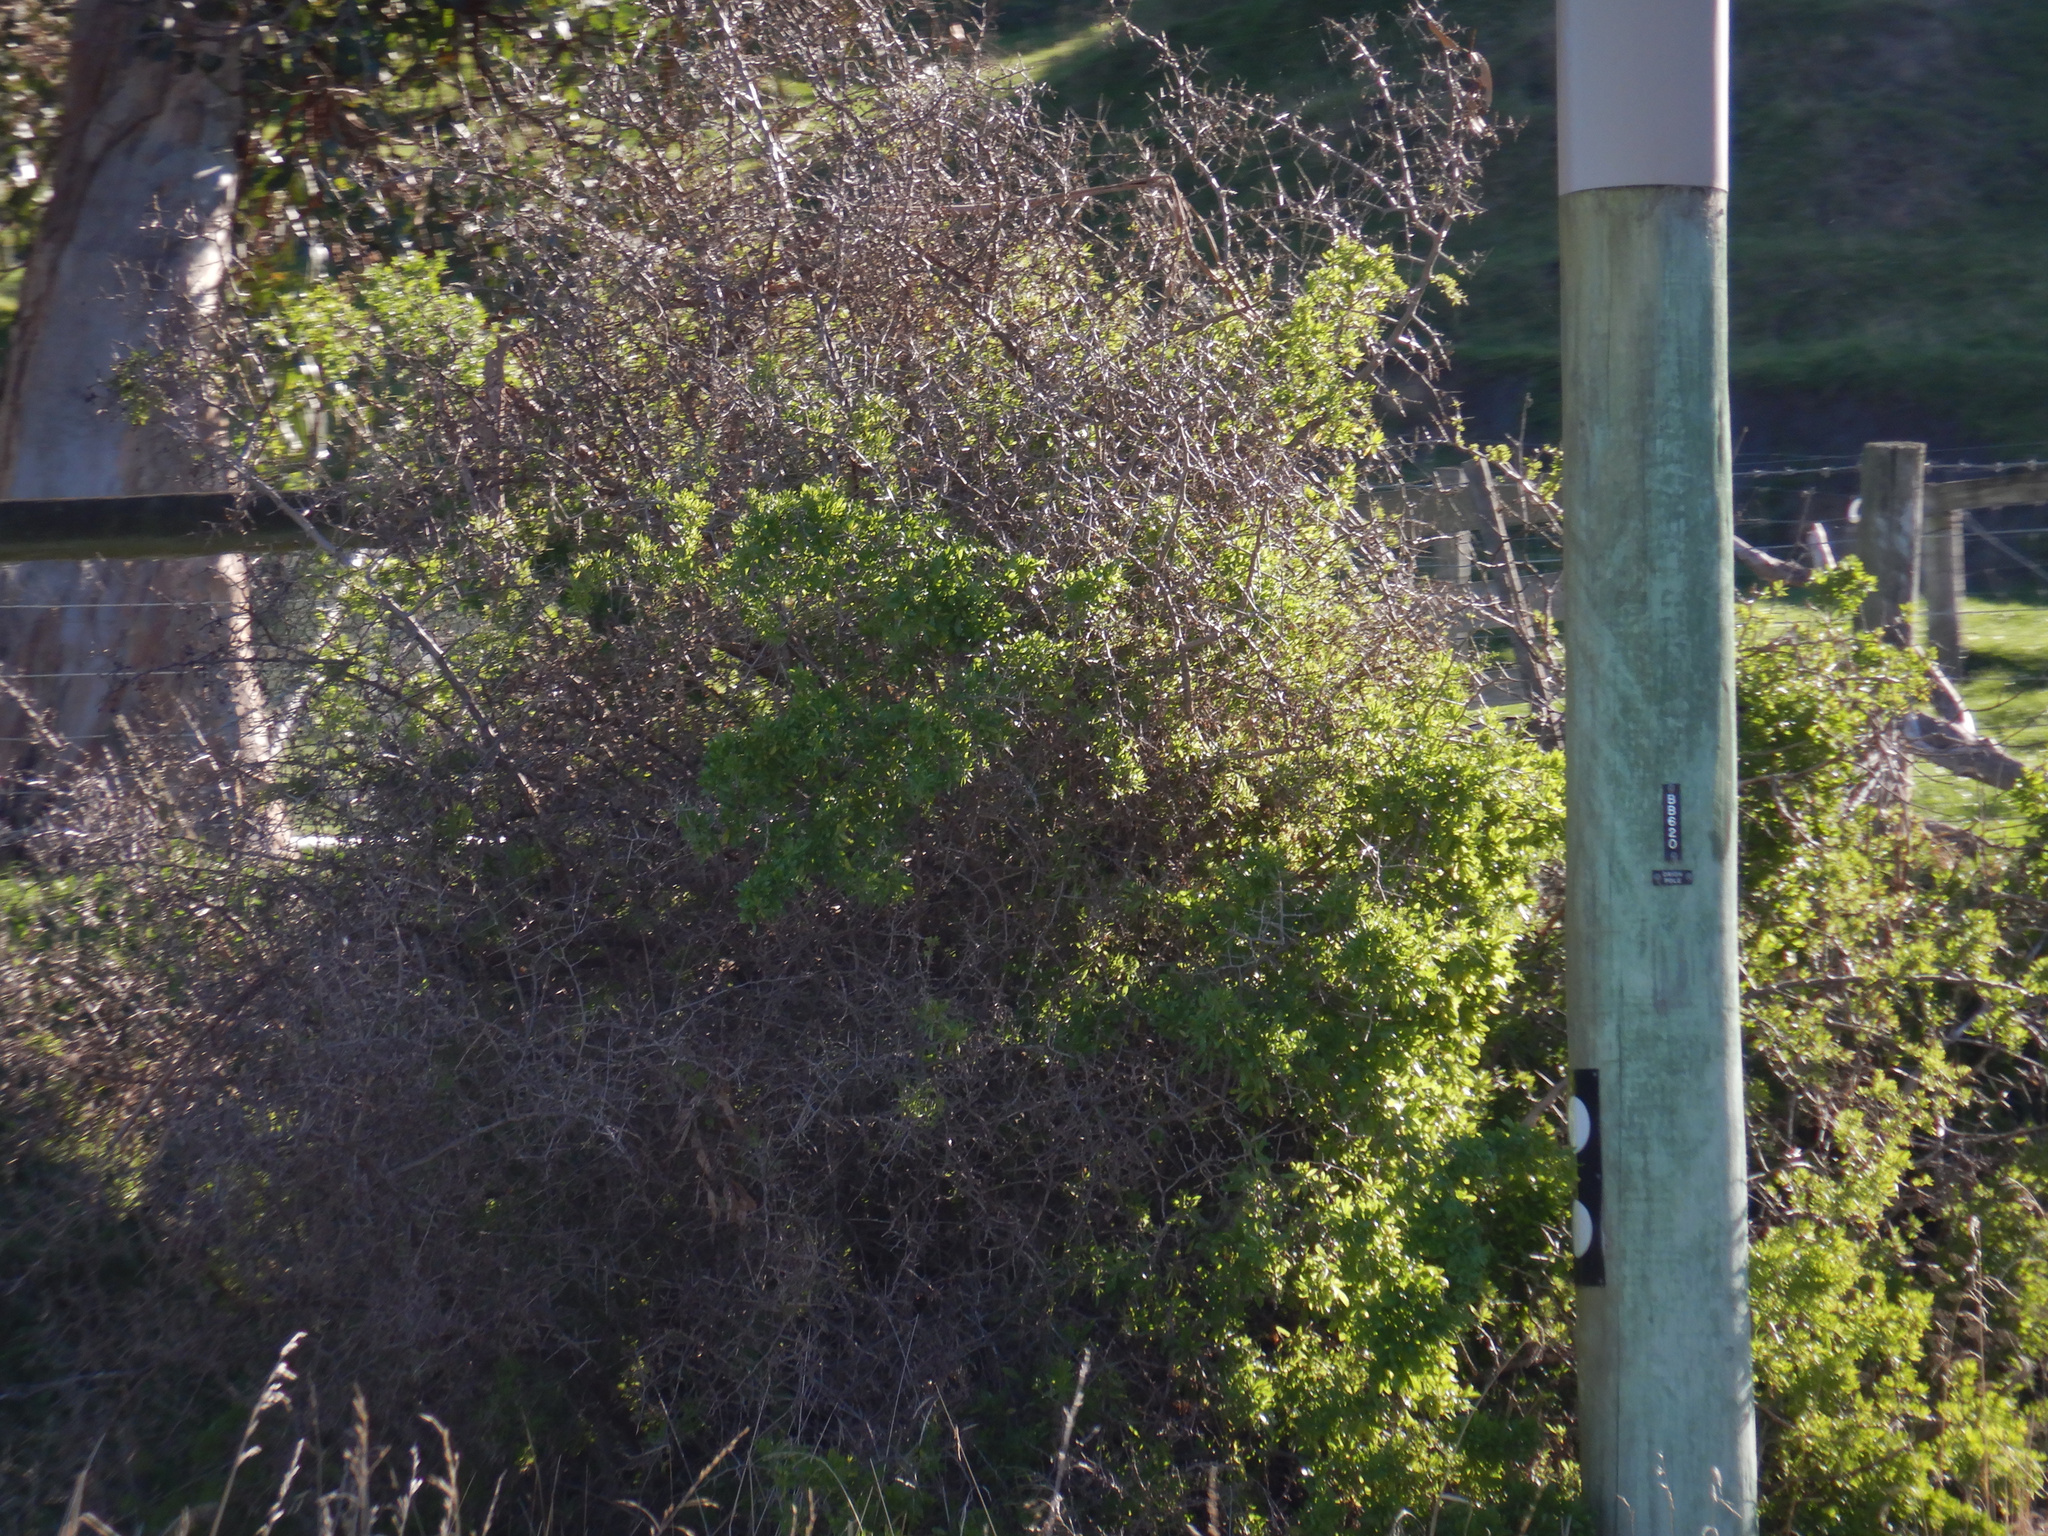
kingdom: Plantae
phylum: Tracheophyta
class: Magnoliopsida
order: Solanales
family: Solanaceae
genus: Lycium
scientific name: Lycium ferocissimum
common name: African boxthorn
